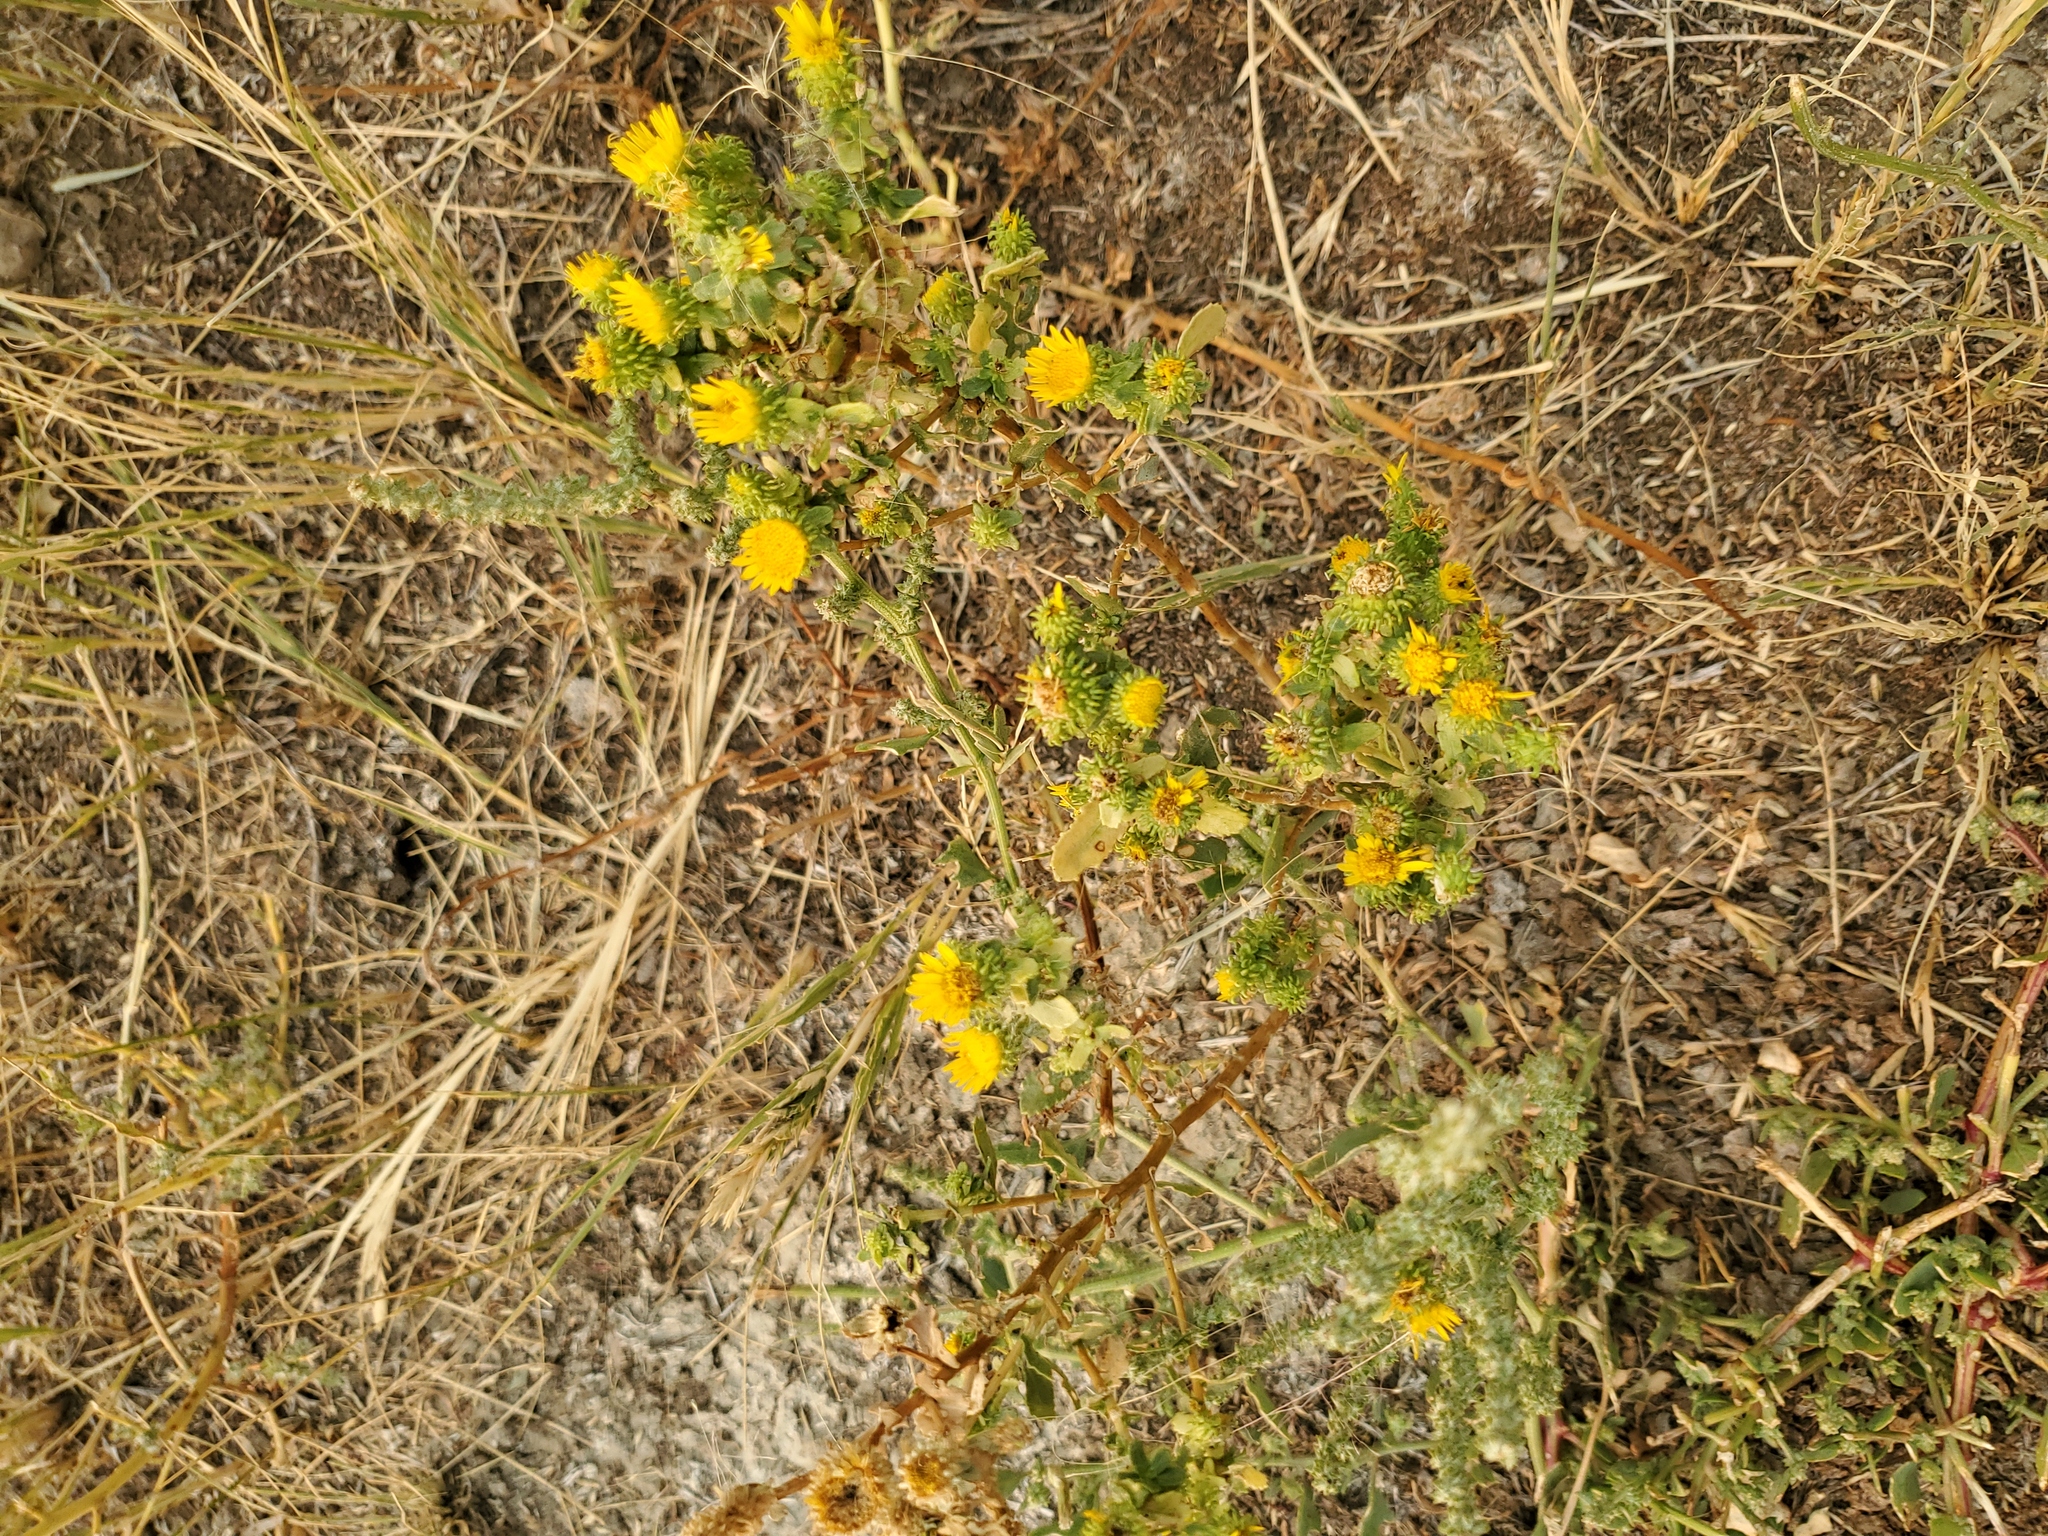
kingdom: Plantae
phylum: Tracheophyta
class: Magnoliopsida
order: Asterales
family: Asteraceae
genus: Grindelia
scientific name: Grindelia squarrosa
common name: Curly-cup gumweed
